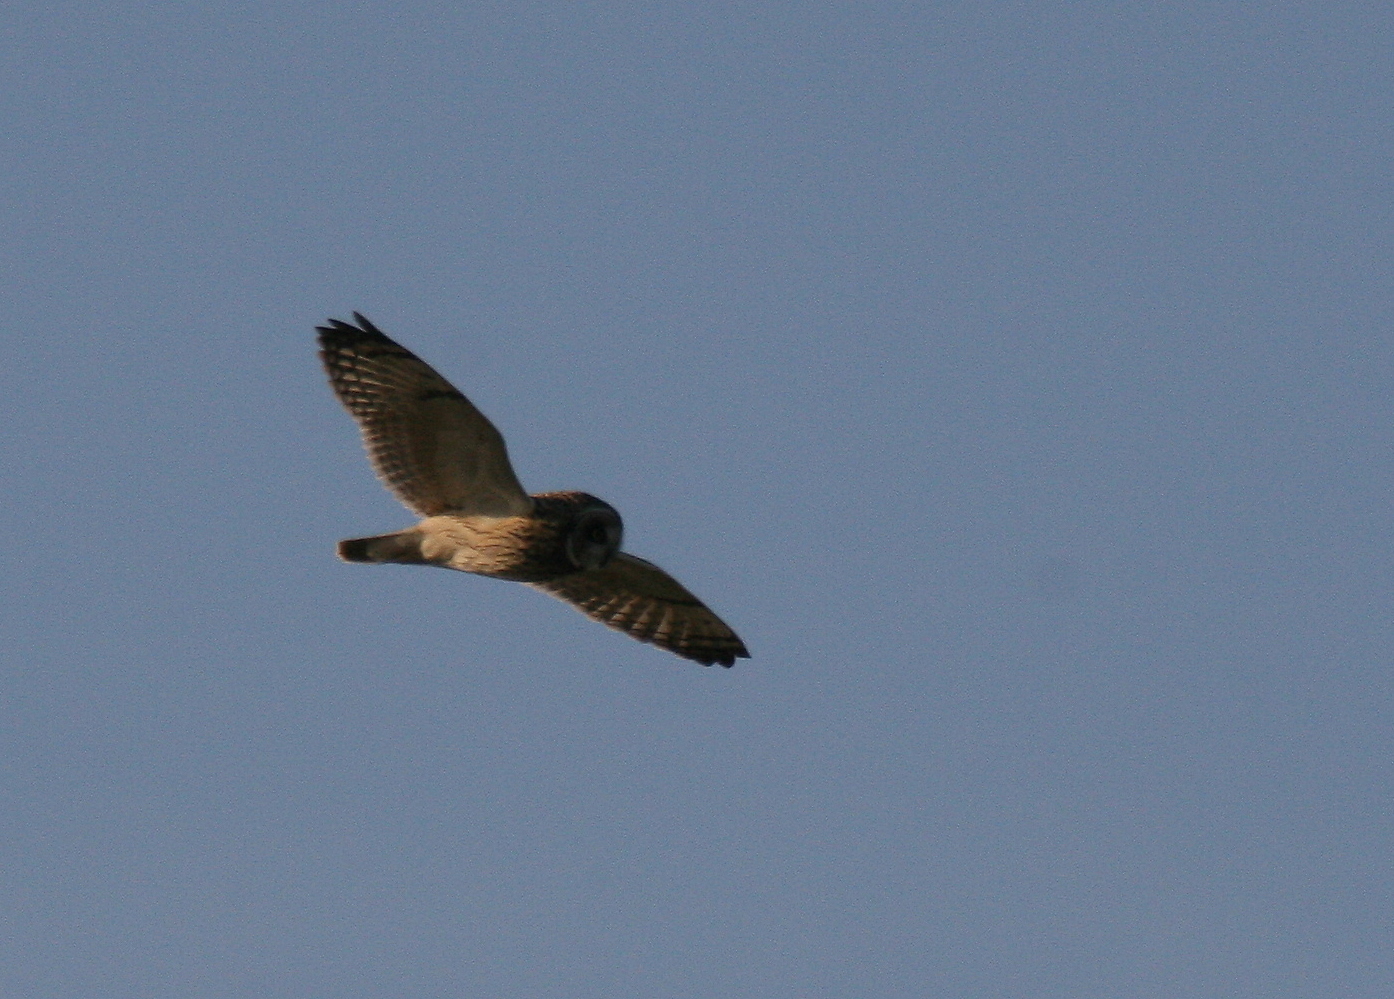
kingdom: Animalia
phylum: Chordata
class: Aves
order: Strigiformes
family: Strigidae
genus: Asio
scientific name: Asio flammeus
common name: Short-eared owl
